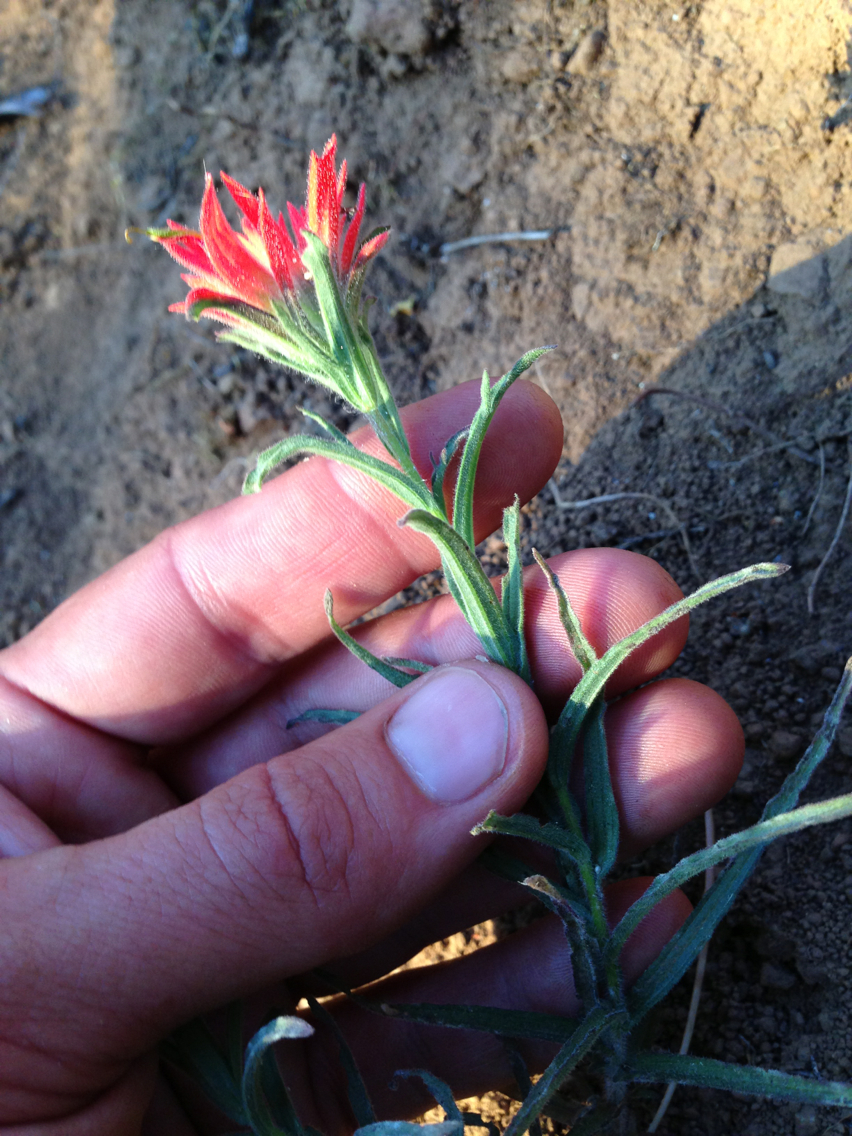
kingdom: Plantae
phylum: Tracheophyta
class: Magnoliopsida
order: Lamiales
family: Orobanchaceae
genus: Castilleja
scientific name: Castilleja affinis
